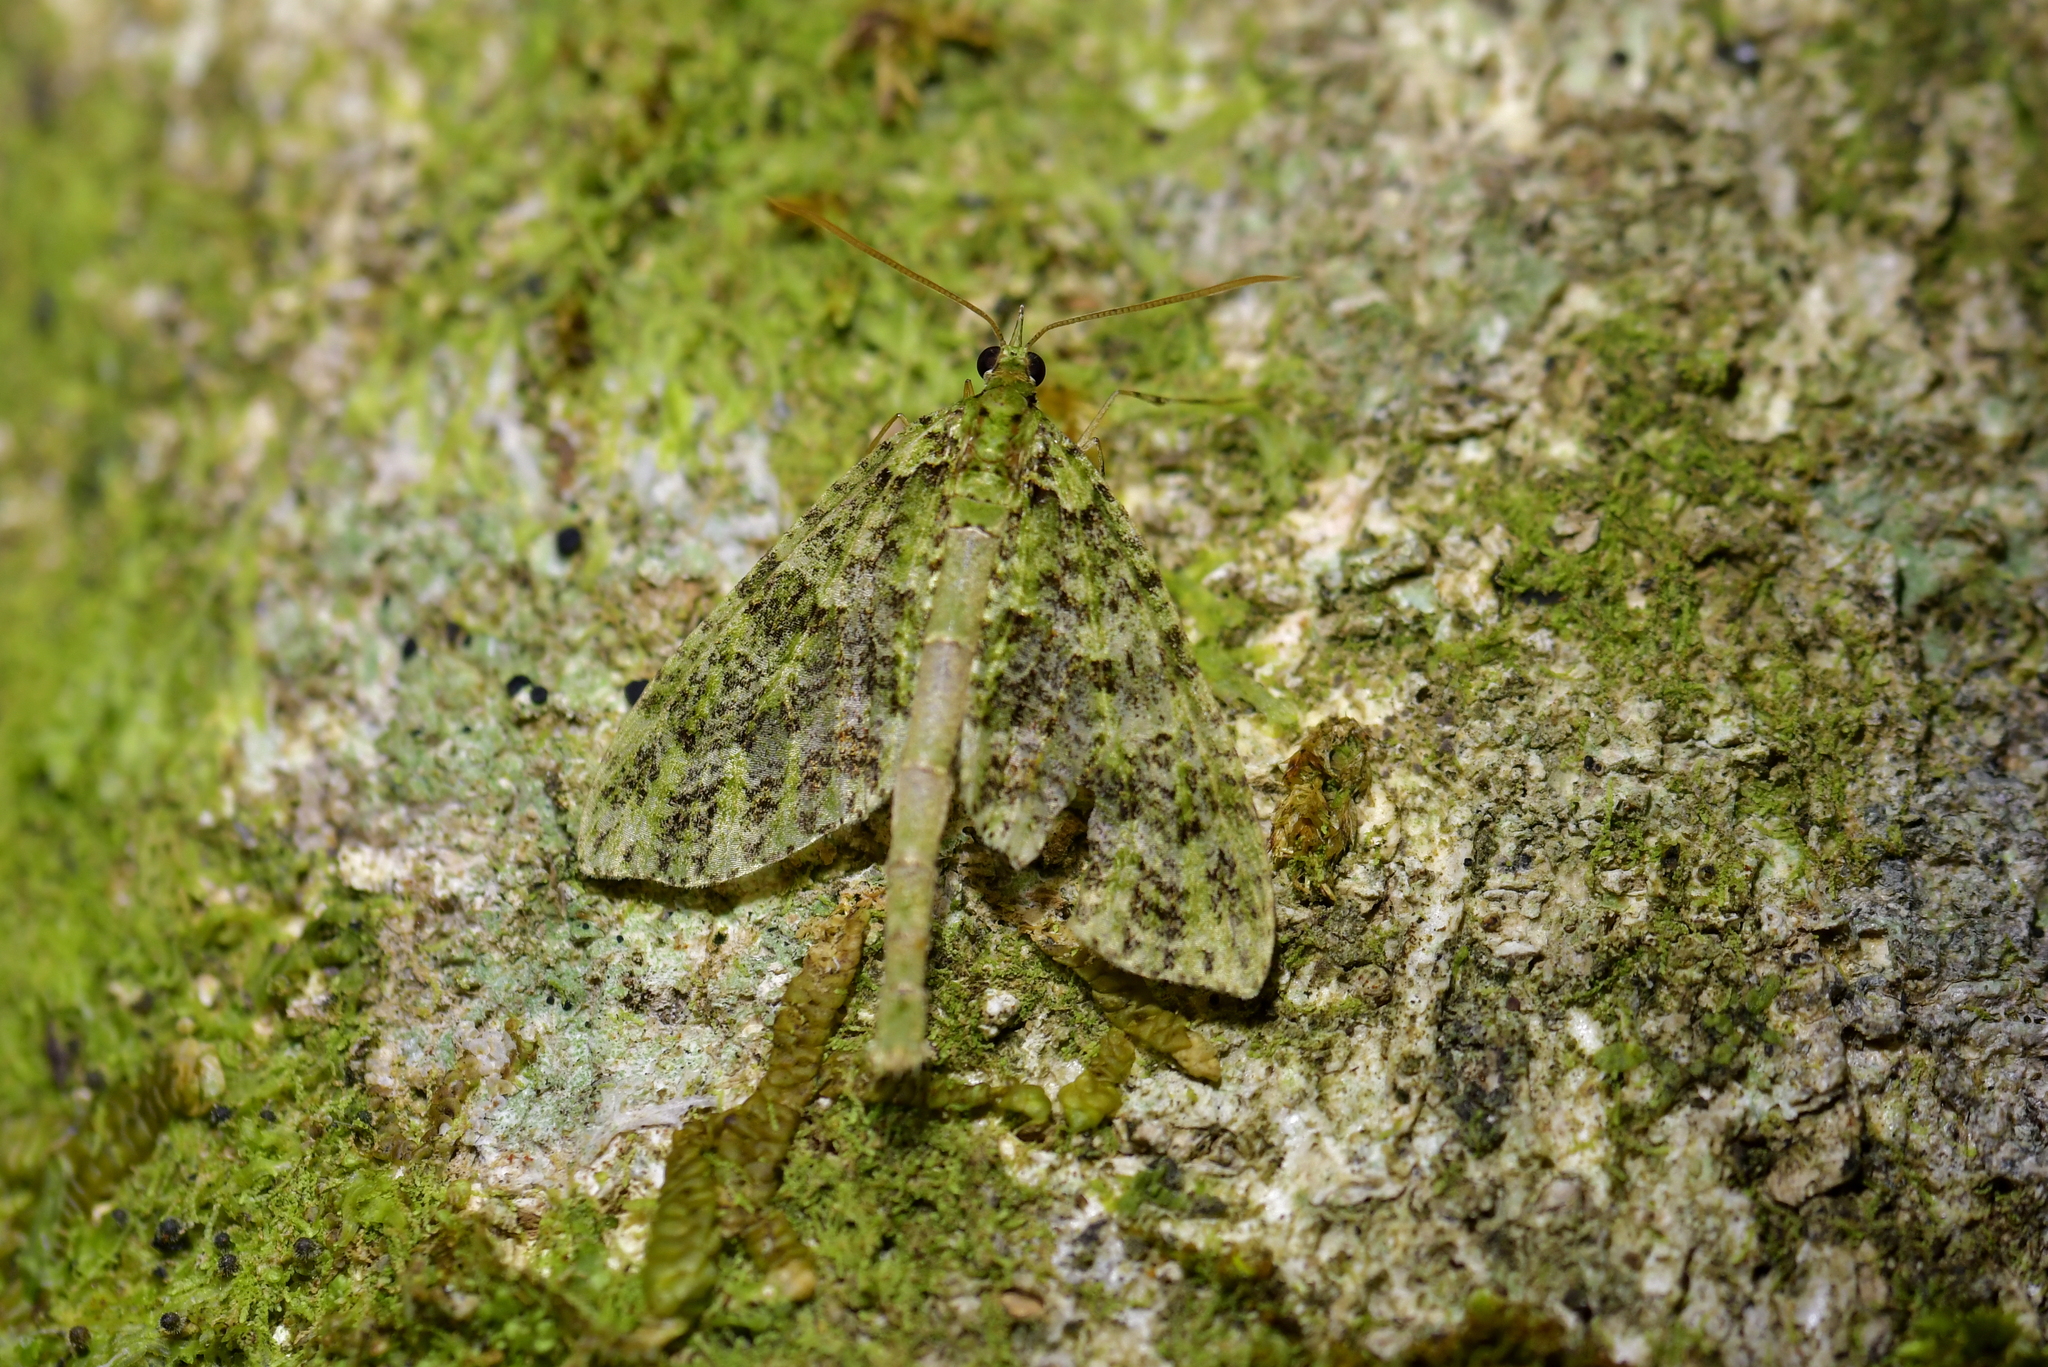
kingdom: Animalia
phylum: Arthropoda
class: Insecta
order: Lepidoptera
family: Geometridae
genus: Tatosoma
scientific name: Tatosoma tipulata
